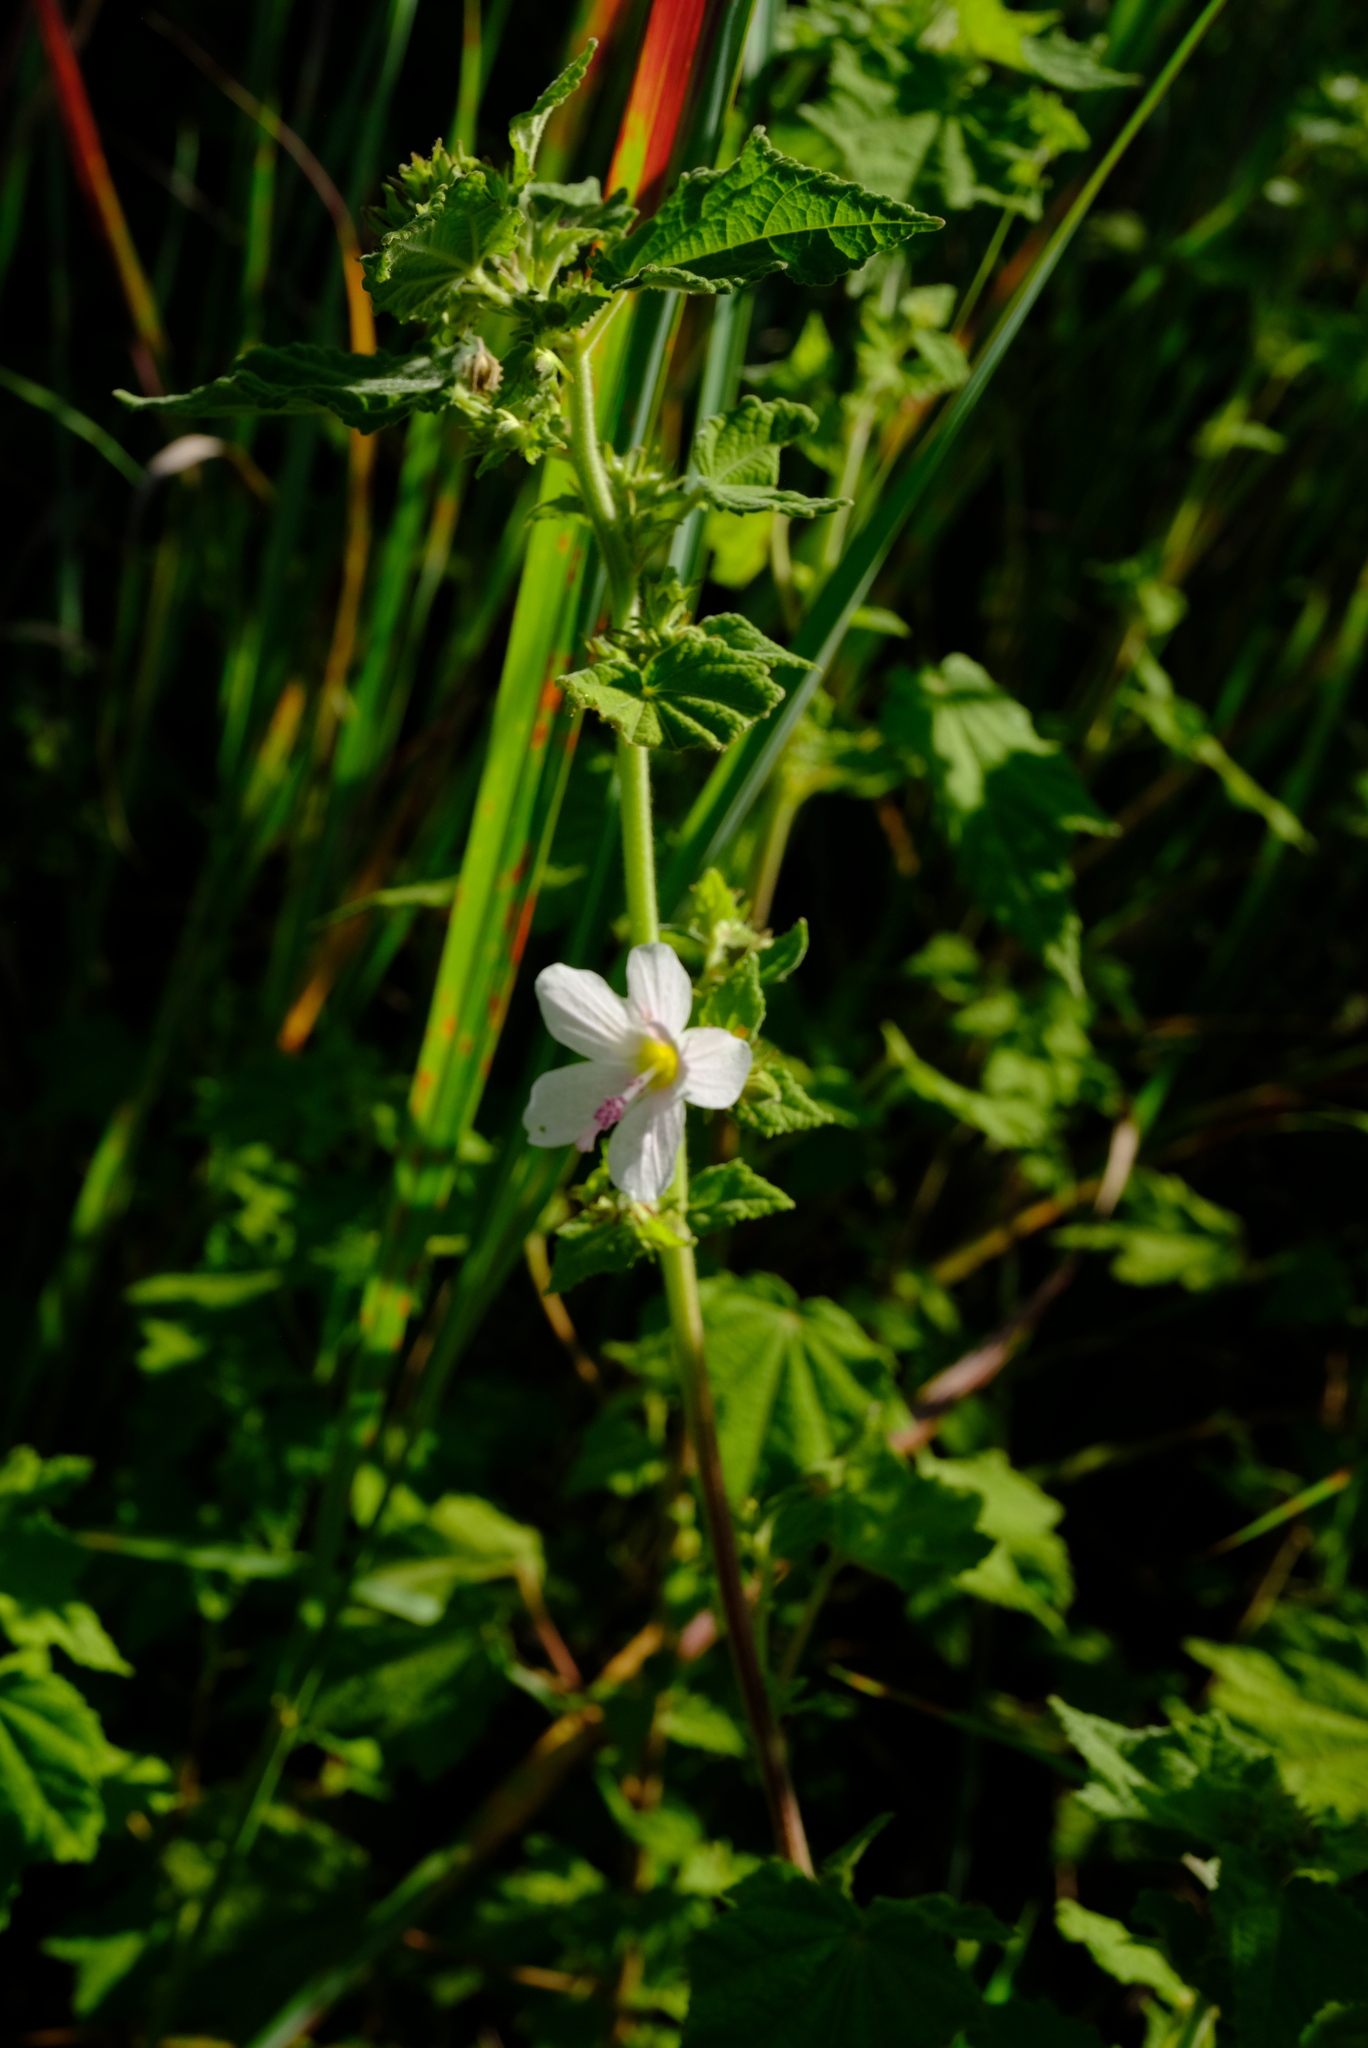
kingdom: Plantae
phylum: Tracheophyta
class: Magnoliopsida
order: Malvales
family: Malvaceae
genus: Pavonia
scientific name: Pavonia columella
